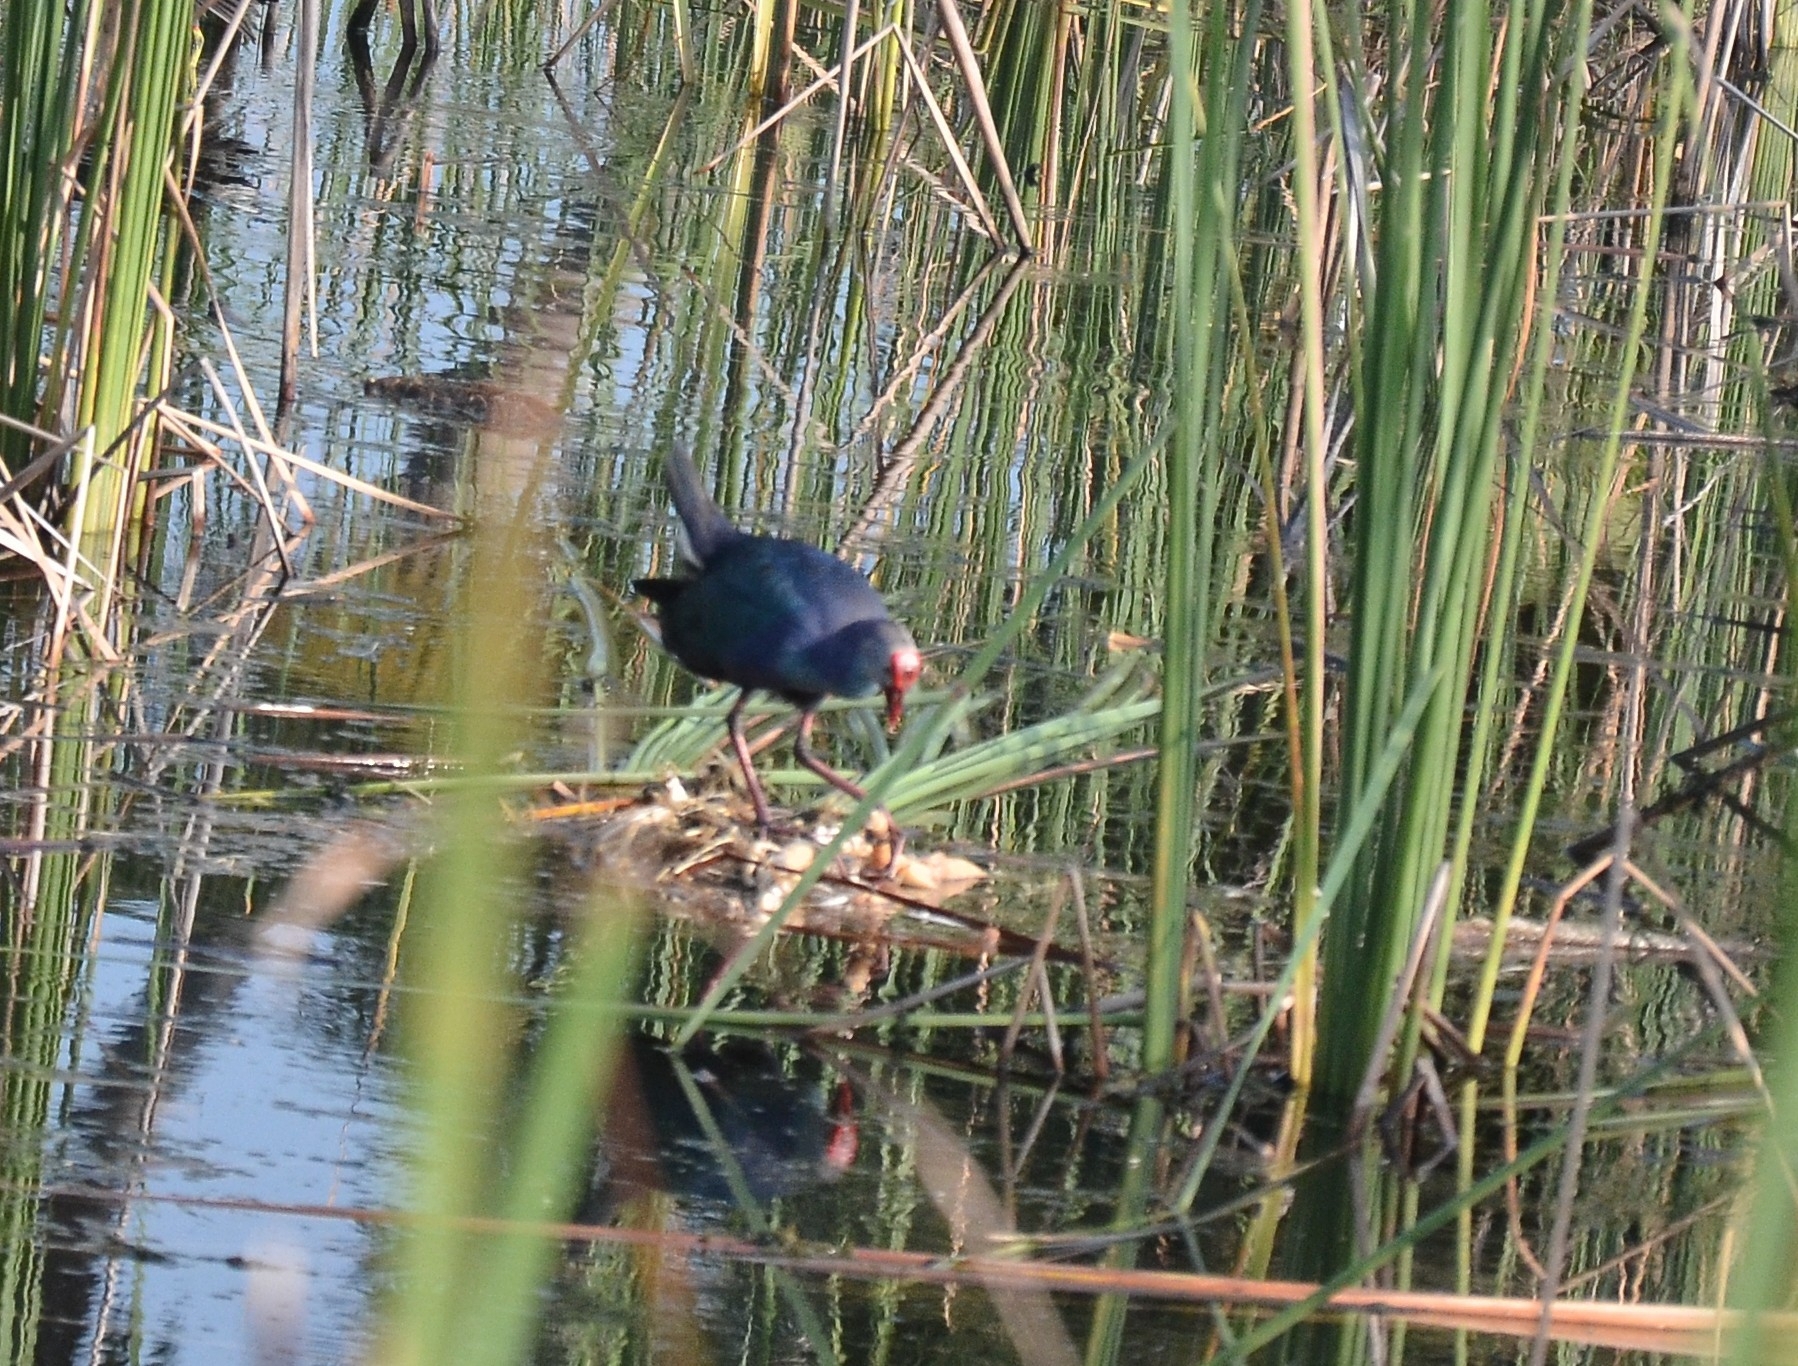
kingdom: Animalia
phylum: Chordata
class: Aves
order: Gruiformes
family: Rallidae
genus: Porphyrio
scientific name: Porphyrio porphyrio
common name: Purple swamphen
